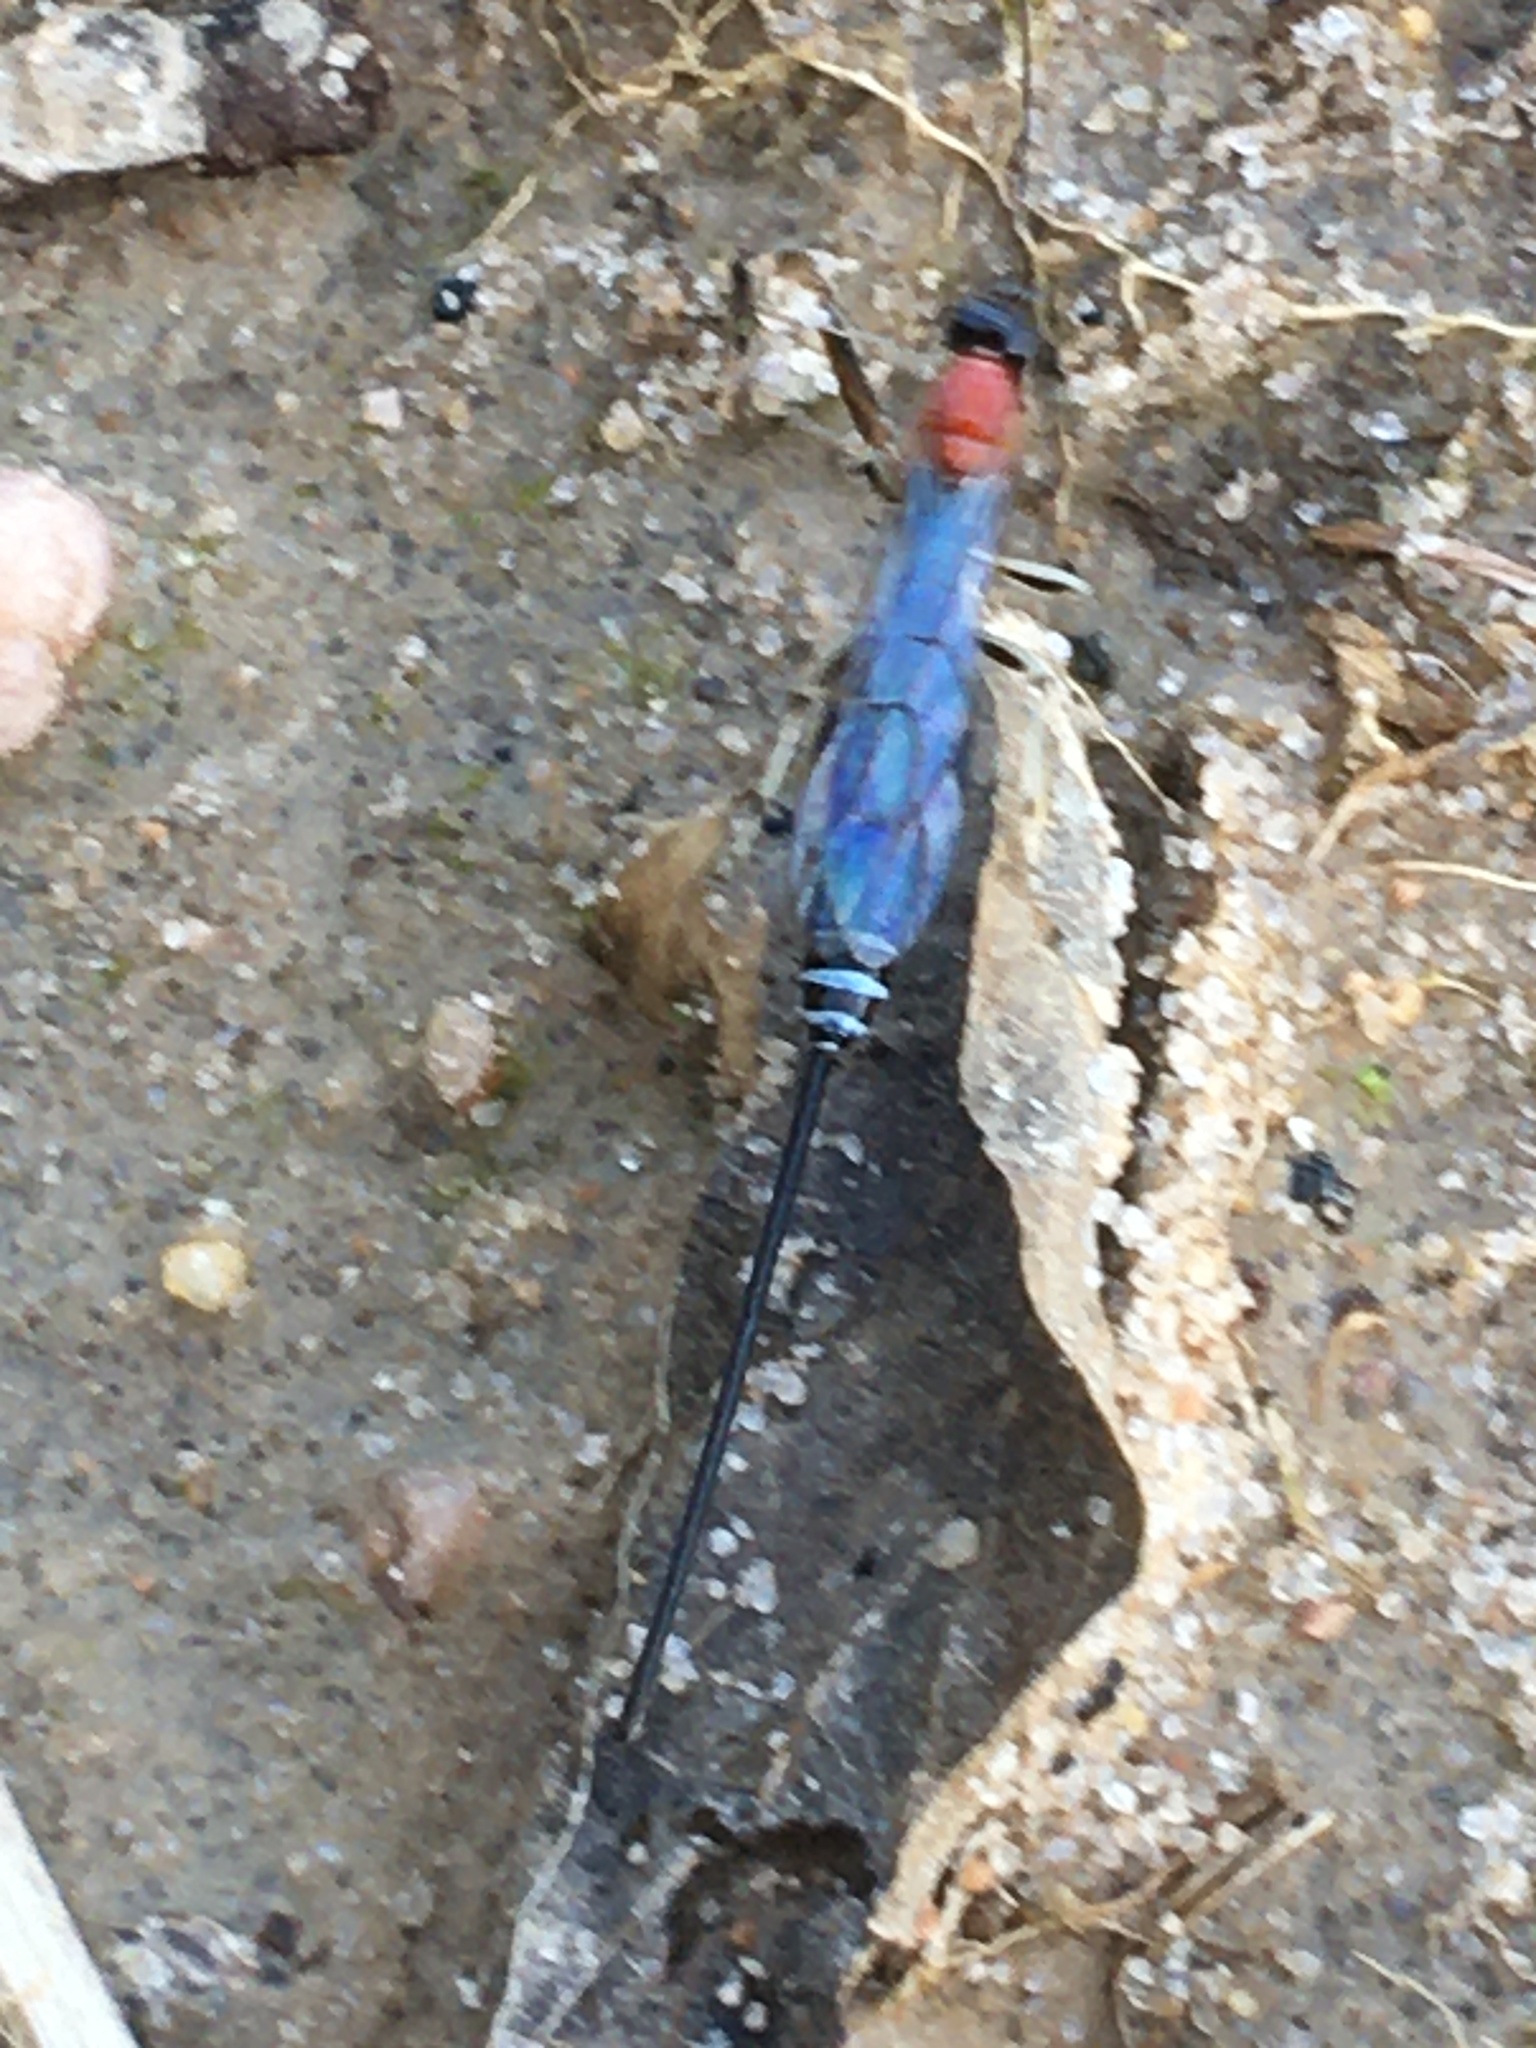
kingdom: Animalia
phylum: Arthropoda
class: Insecta
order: Hymenoptera
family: Ichneumonidae
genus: Calliephialtes
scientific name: Calliephialtes grapholithae
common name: Parasitoid wasp
